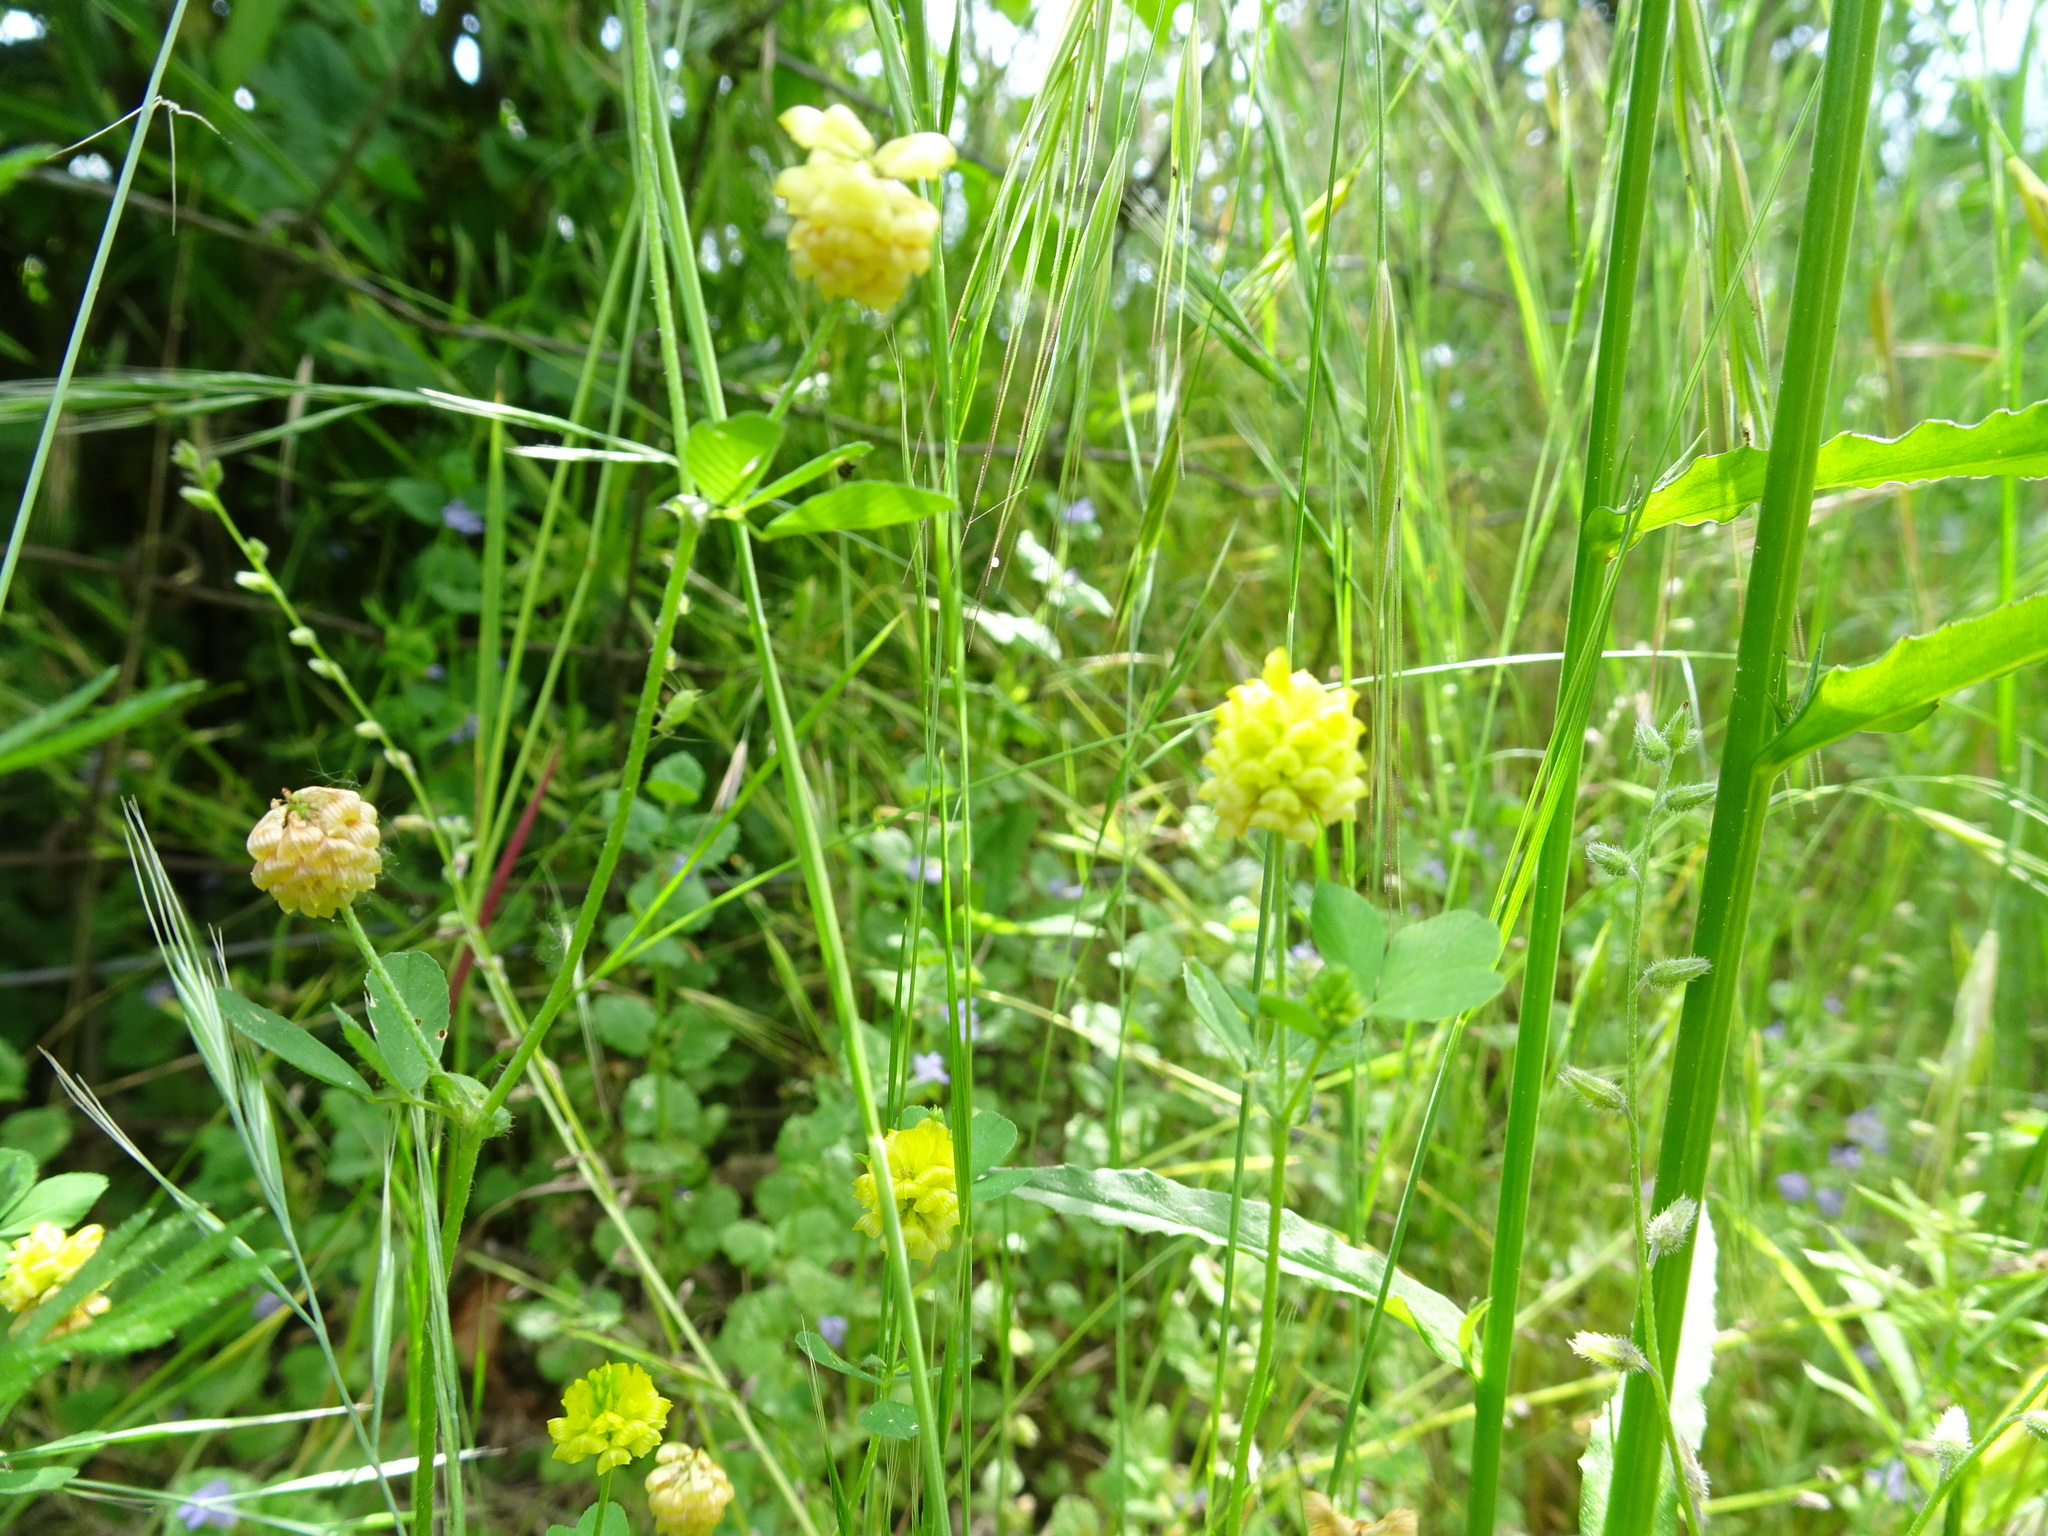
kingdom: Plantae
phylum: Tracheophyta
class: Magnoliopsida
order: Fabales
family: Fabaceae
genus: Trifolium
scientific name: Trifolium campestre
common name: Field clover
